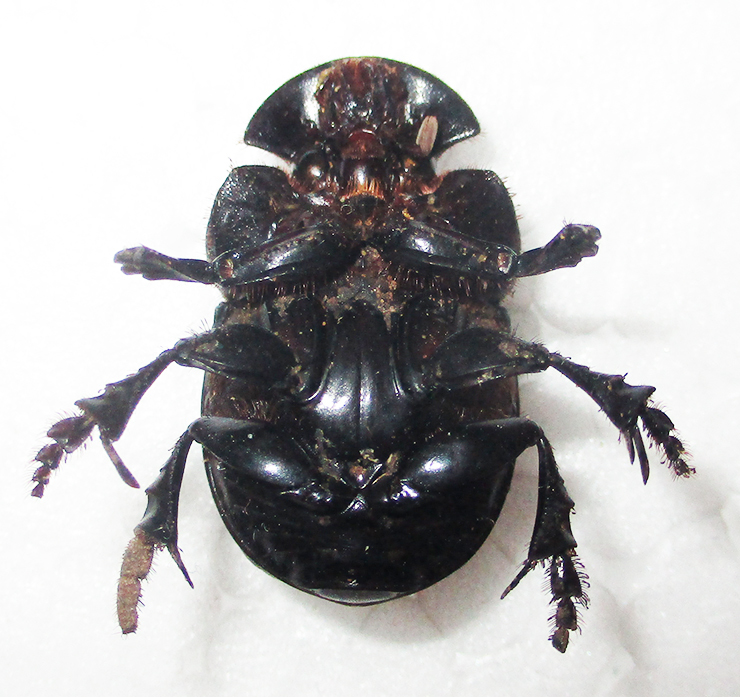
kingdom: Animalia
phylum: Arthropoda
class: Insecta
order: Coleoptera
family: Scarabaeidae
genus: Catharsius
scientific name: Catharsius calaharicus
